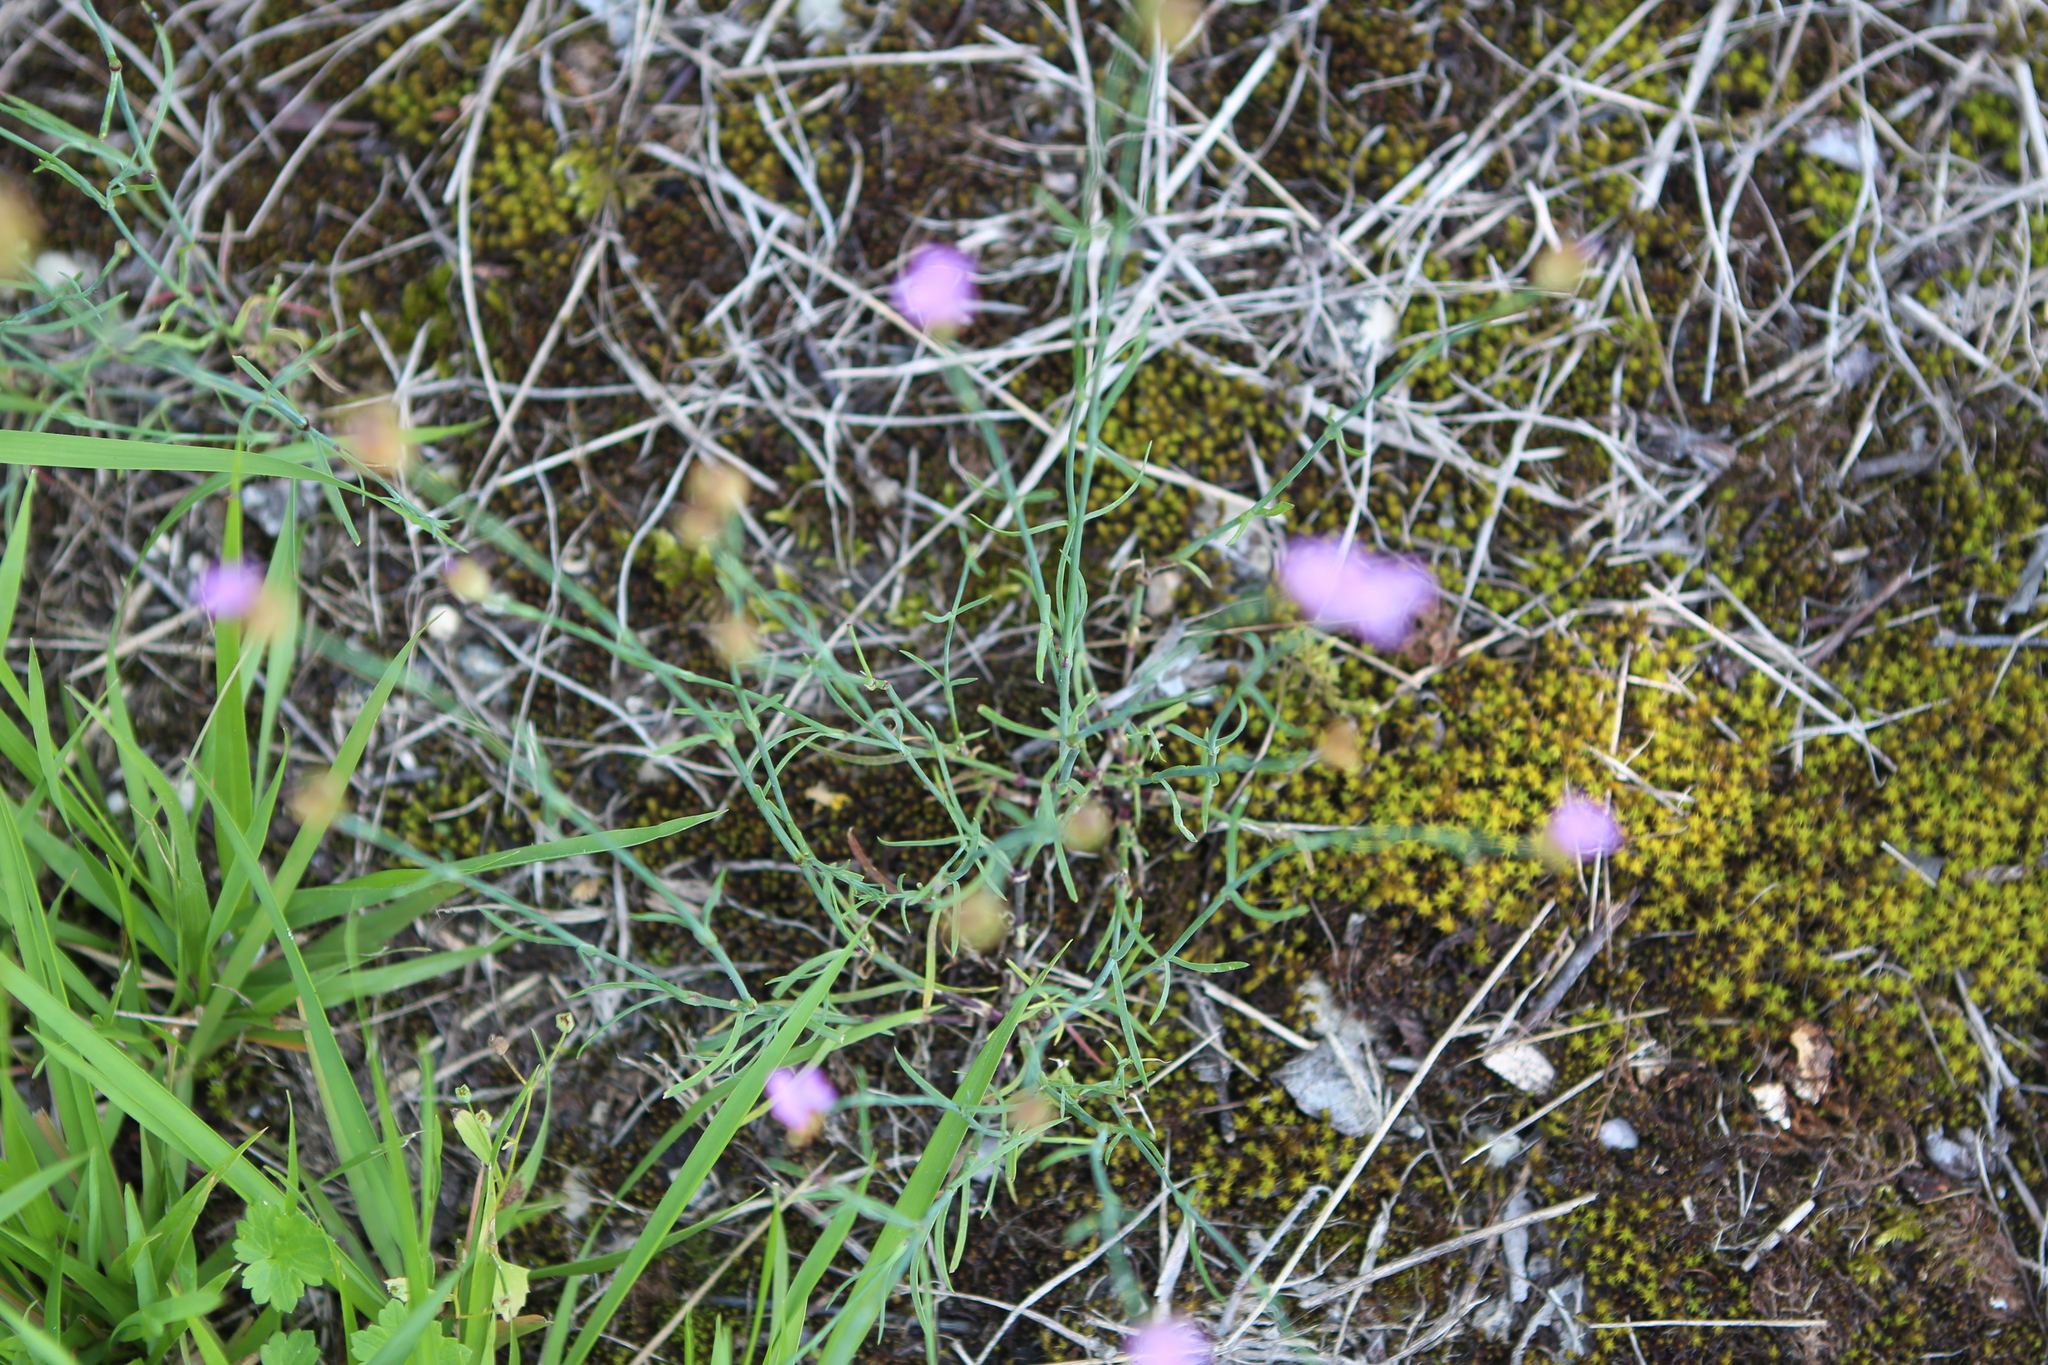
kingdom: Plantae
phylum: Tracheophyta
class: Magnoliopsida
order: Caryophyllales
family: Caryophyllaceae
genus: Petrorhagia
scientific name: Petrorhagia prolifera
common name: Proliferous pink
